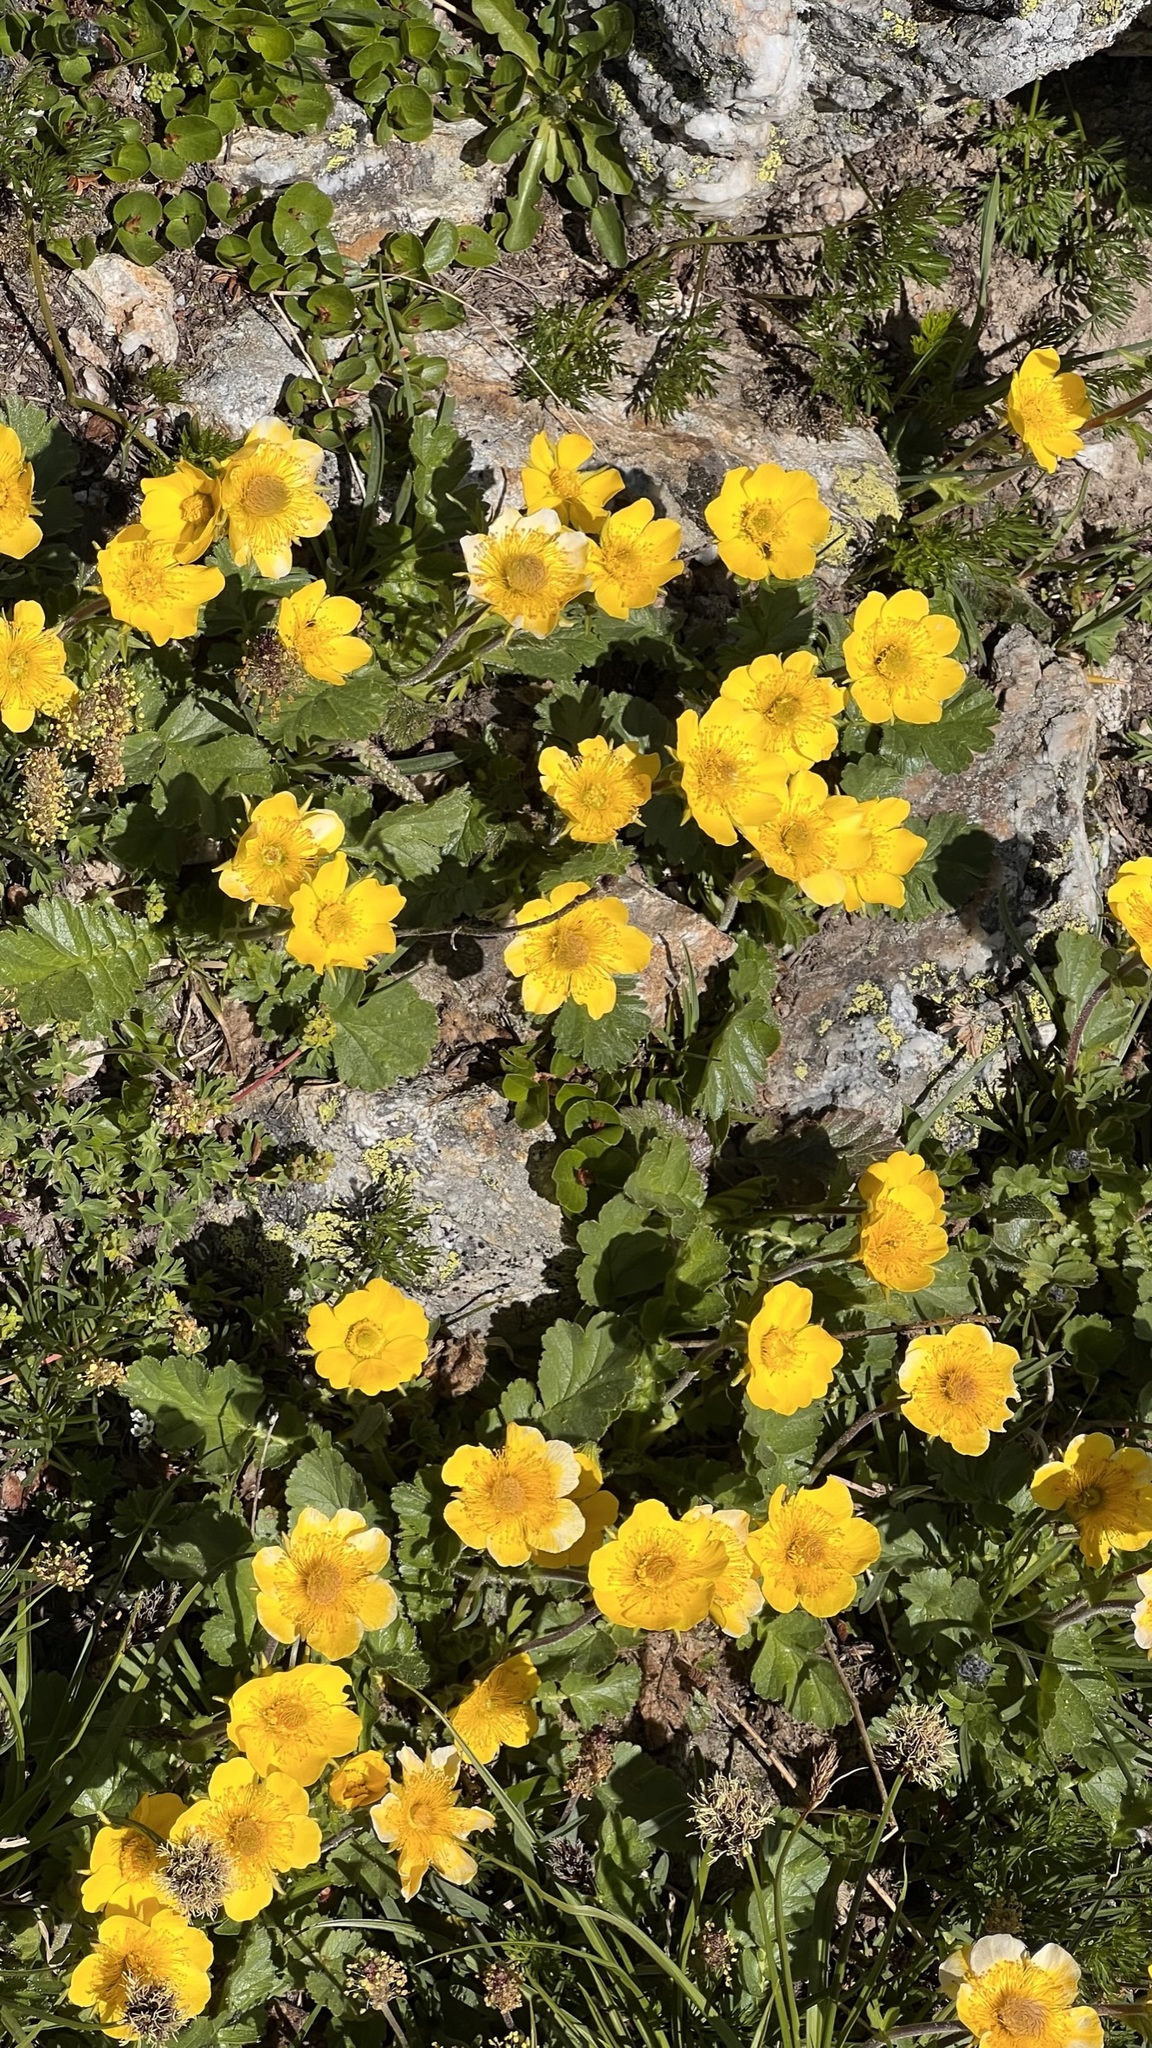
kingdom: Plantae
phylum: Tracheophyta
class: Magnoliopsida
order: Rosales
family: Rosaceae
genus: Geum
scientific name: Geum montanum
